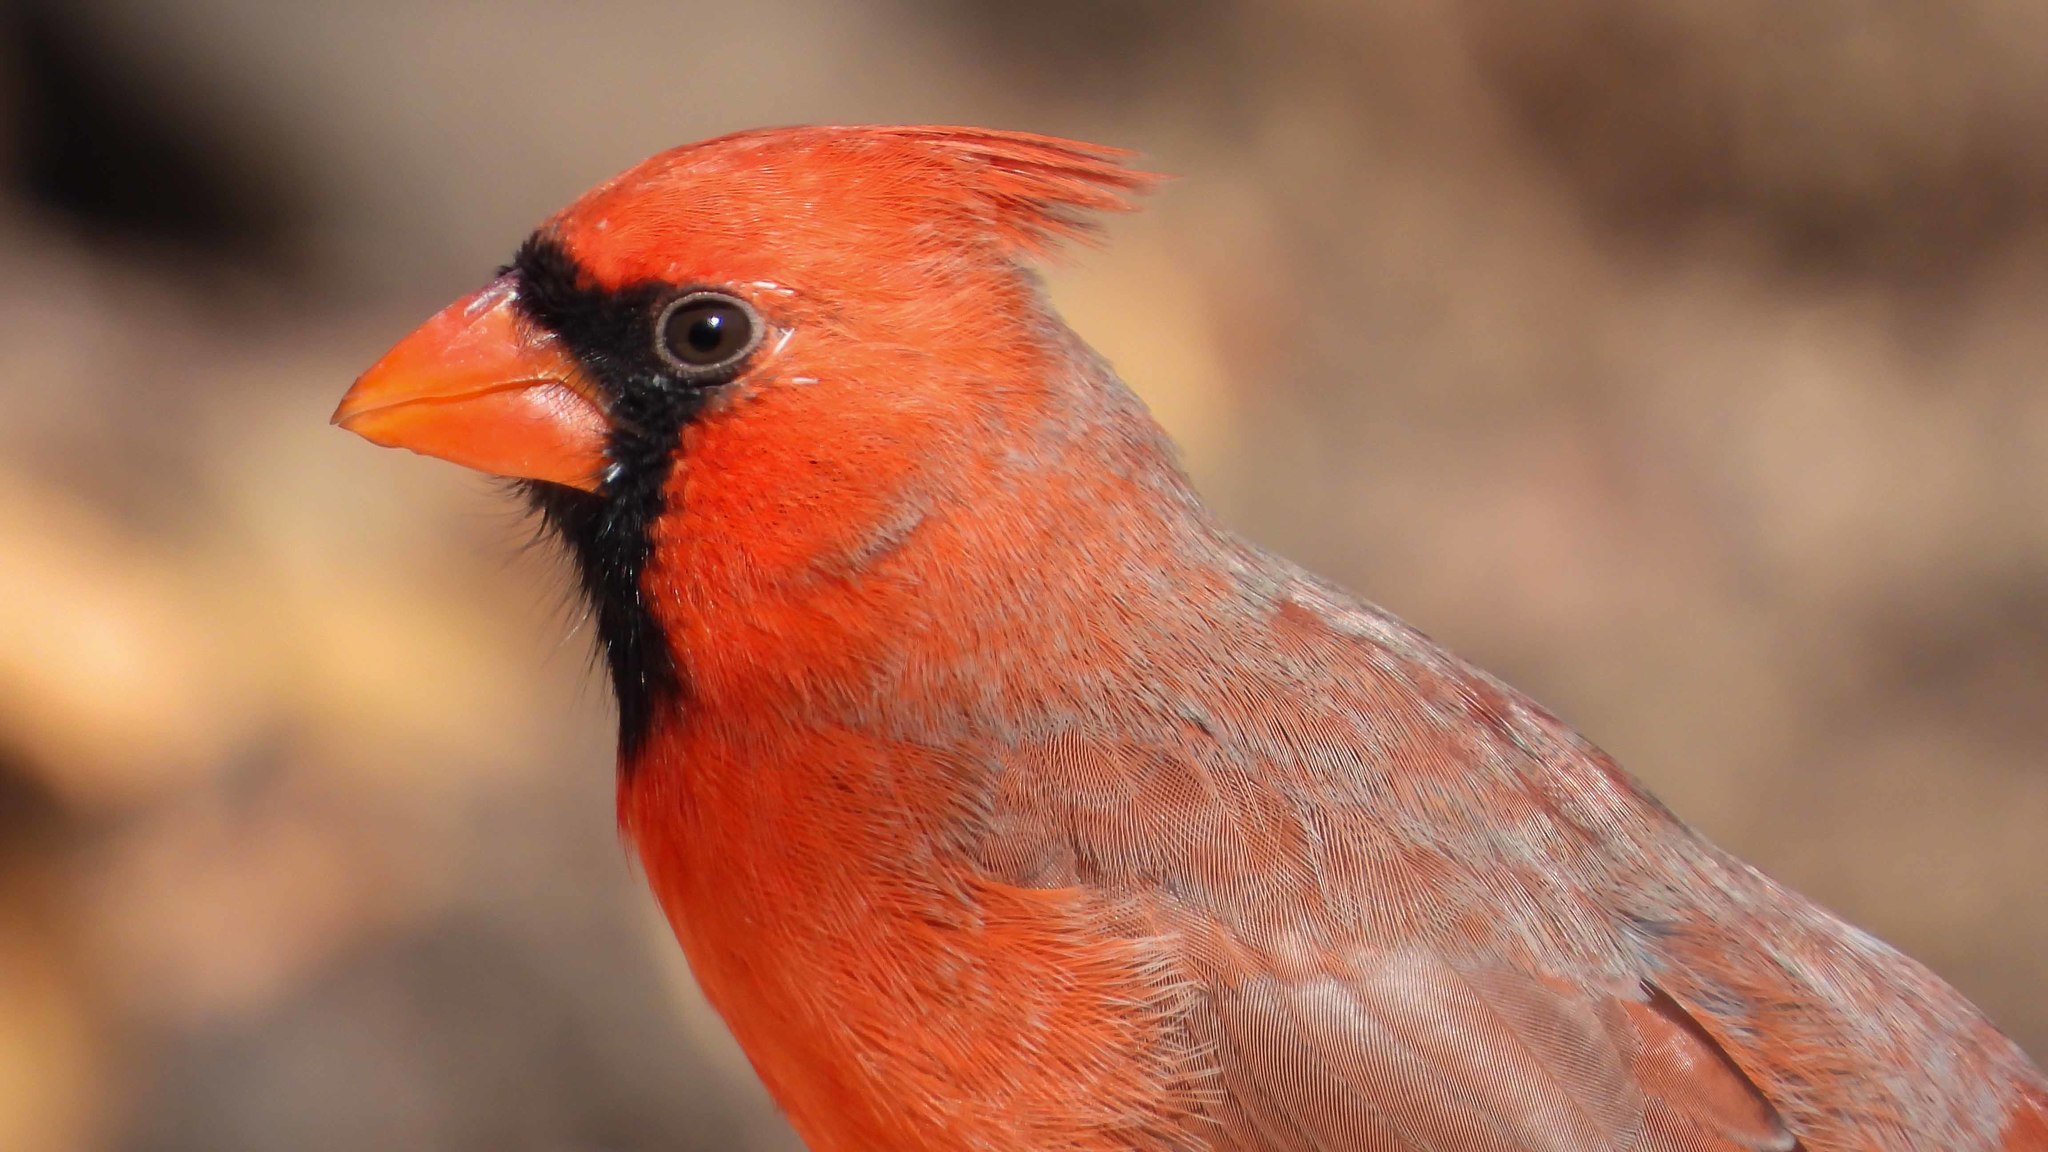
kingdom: Animalia
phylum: Chordata
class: Aves
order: Passeriformes
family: Cardinalidae
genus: Cardinalis
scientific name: Cardinalis cardinalis
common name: Northern cardinal
